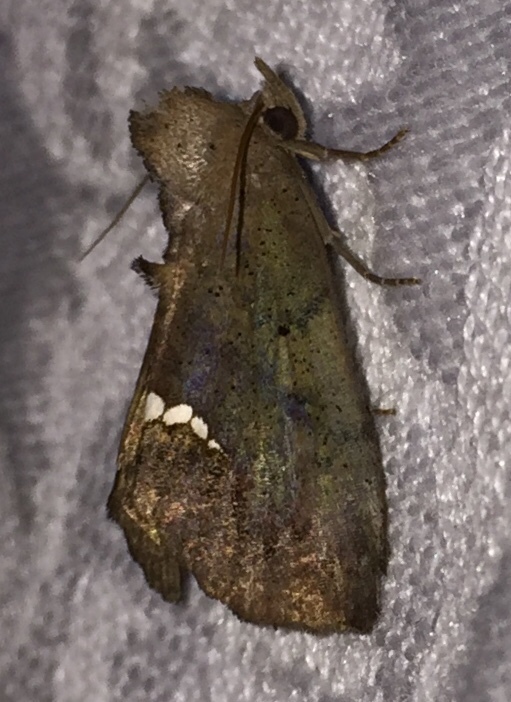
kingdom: Animalia
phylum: Arthropoda
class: Insecta
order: Lepidoptera
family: Erebidae
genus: Hypsoropha
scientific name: Hypsoropha hormos
